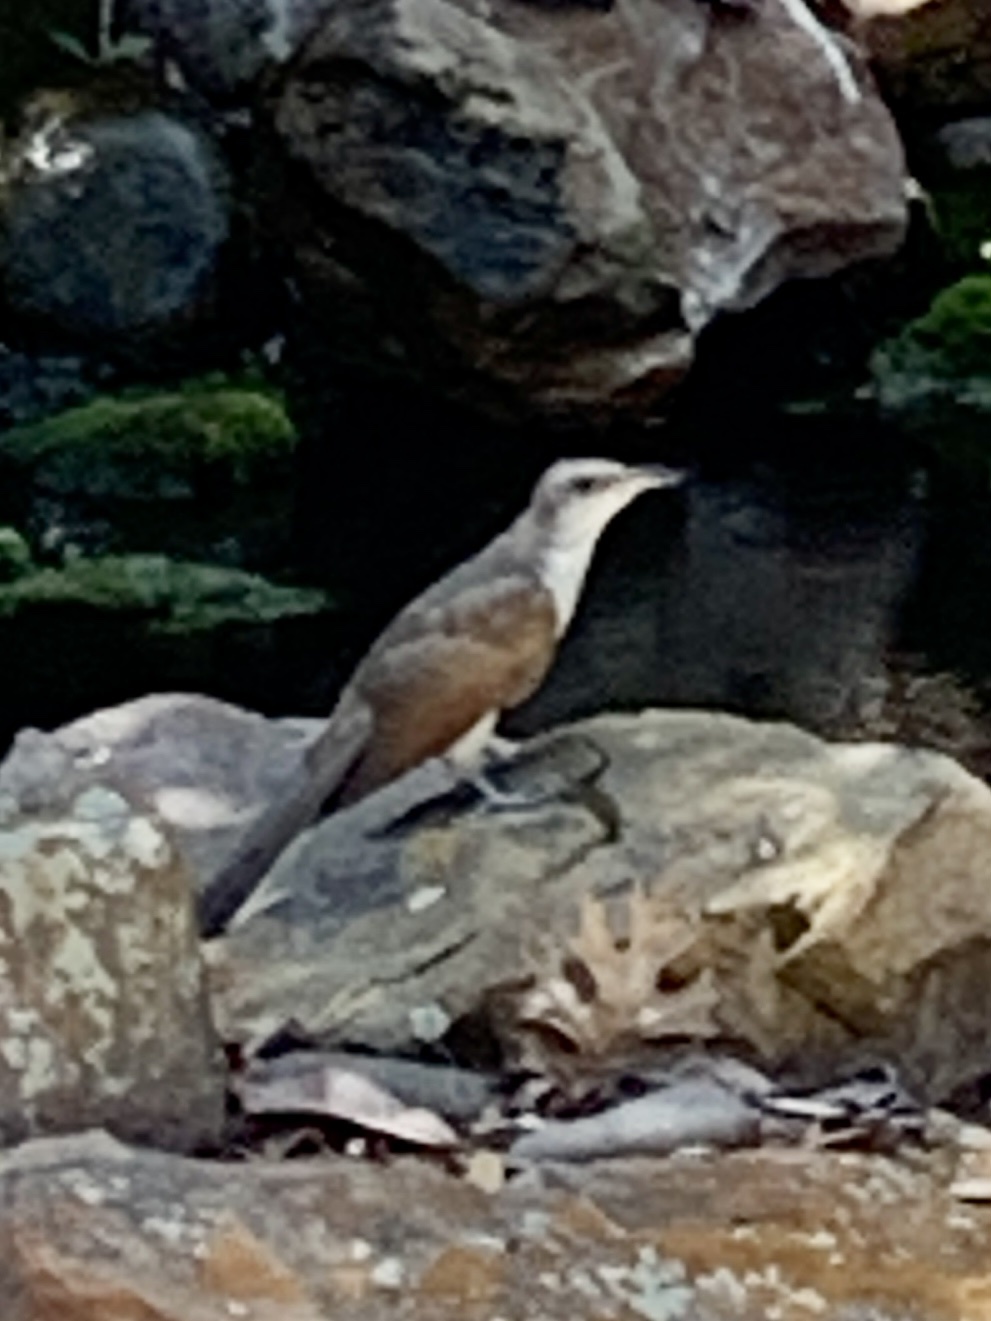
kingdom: Animalia
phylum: Chordata
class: Aves
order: Cuculiformes
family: Cuculidae
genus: Coccyzus
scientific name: Coccyzus americanus
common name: Yellow-billed cuckoo
